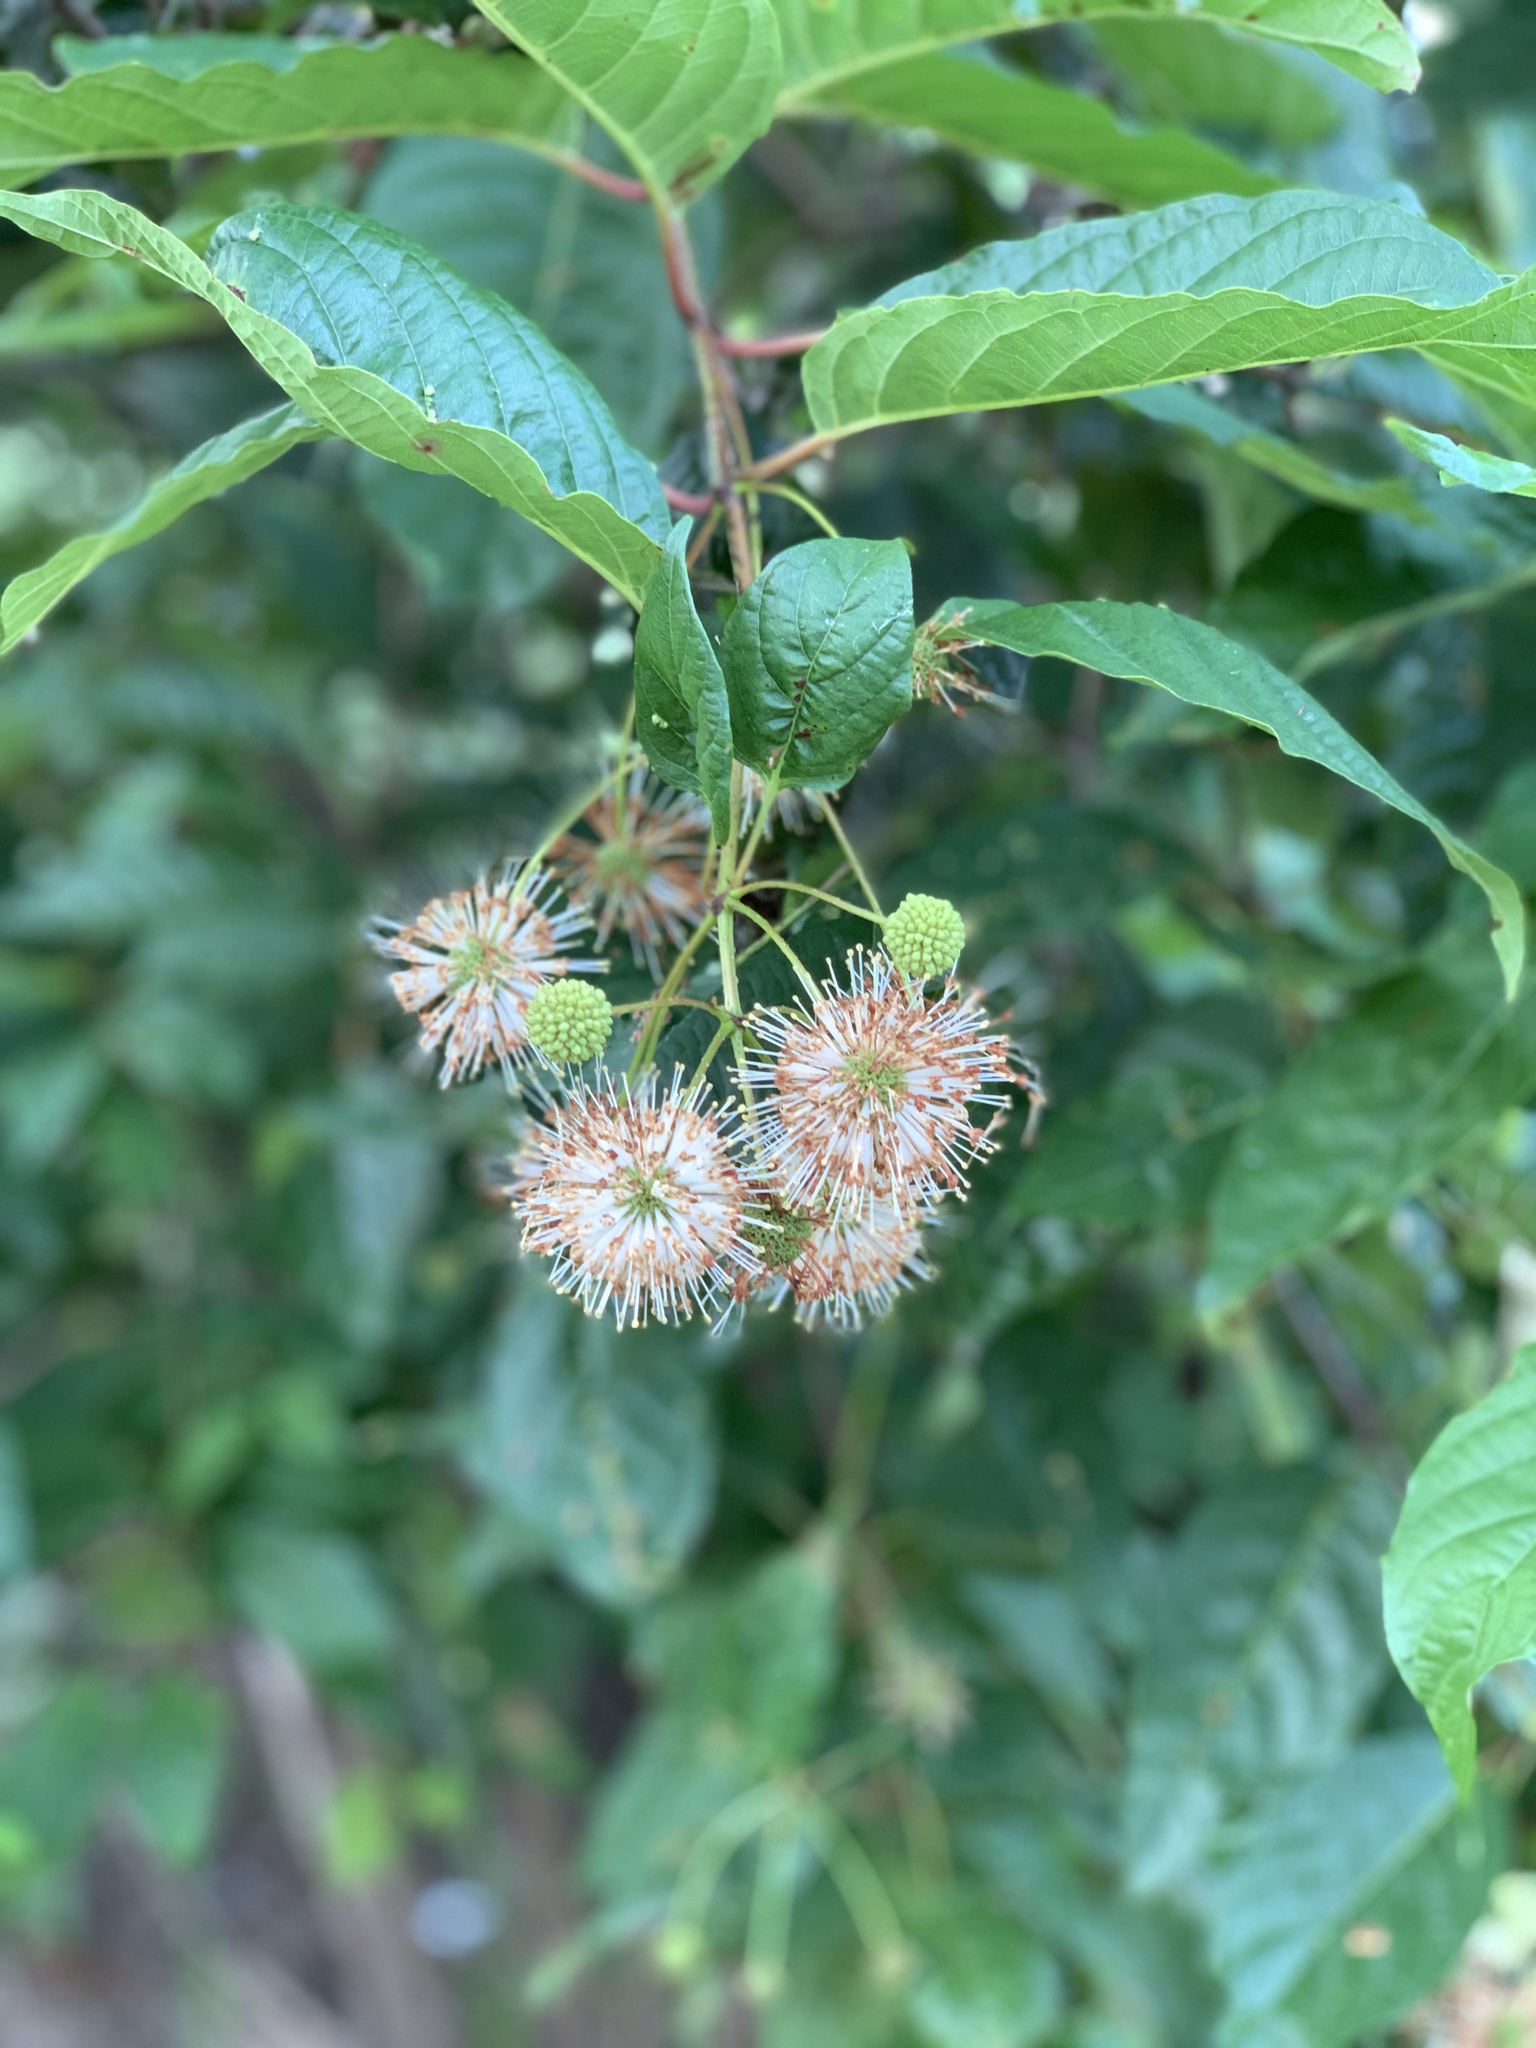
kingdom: Plantae
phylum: Tracheophyta
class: Magnoliopsida
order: Gentianales
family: Rubiaceae
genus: Cephalanthus
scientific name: Cephalanthus occidentalis
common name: Button-willow
